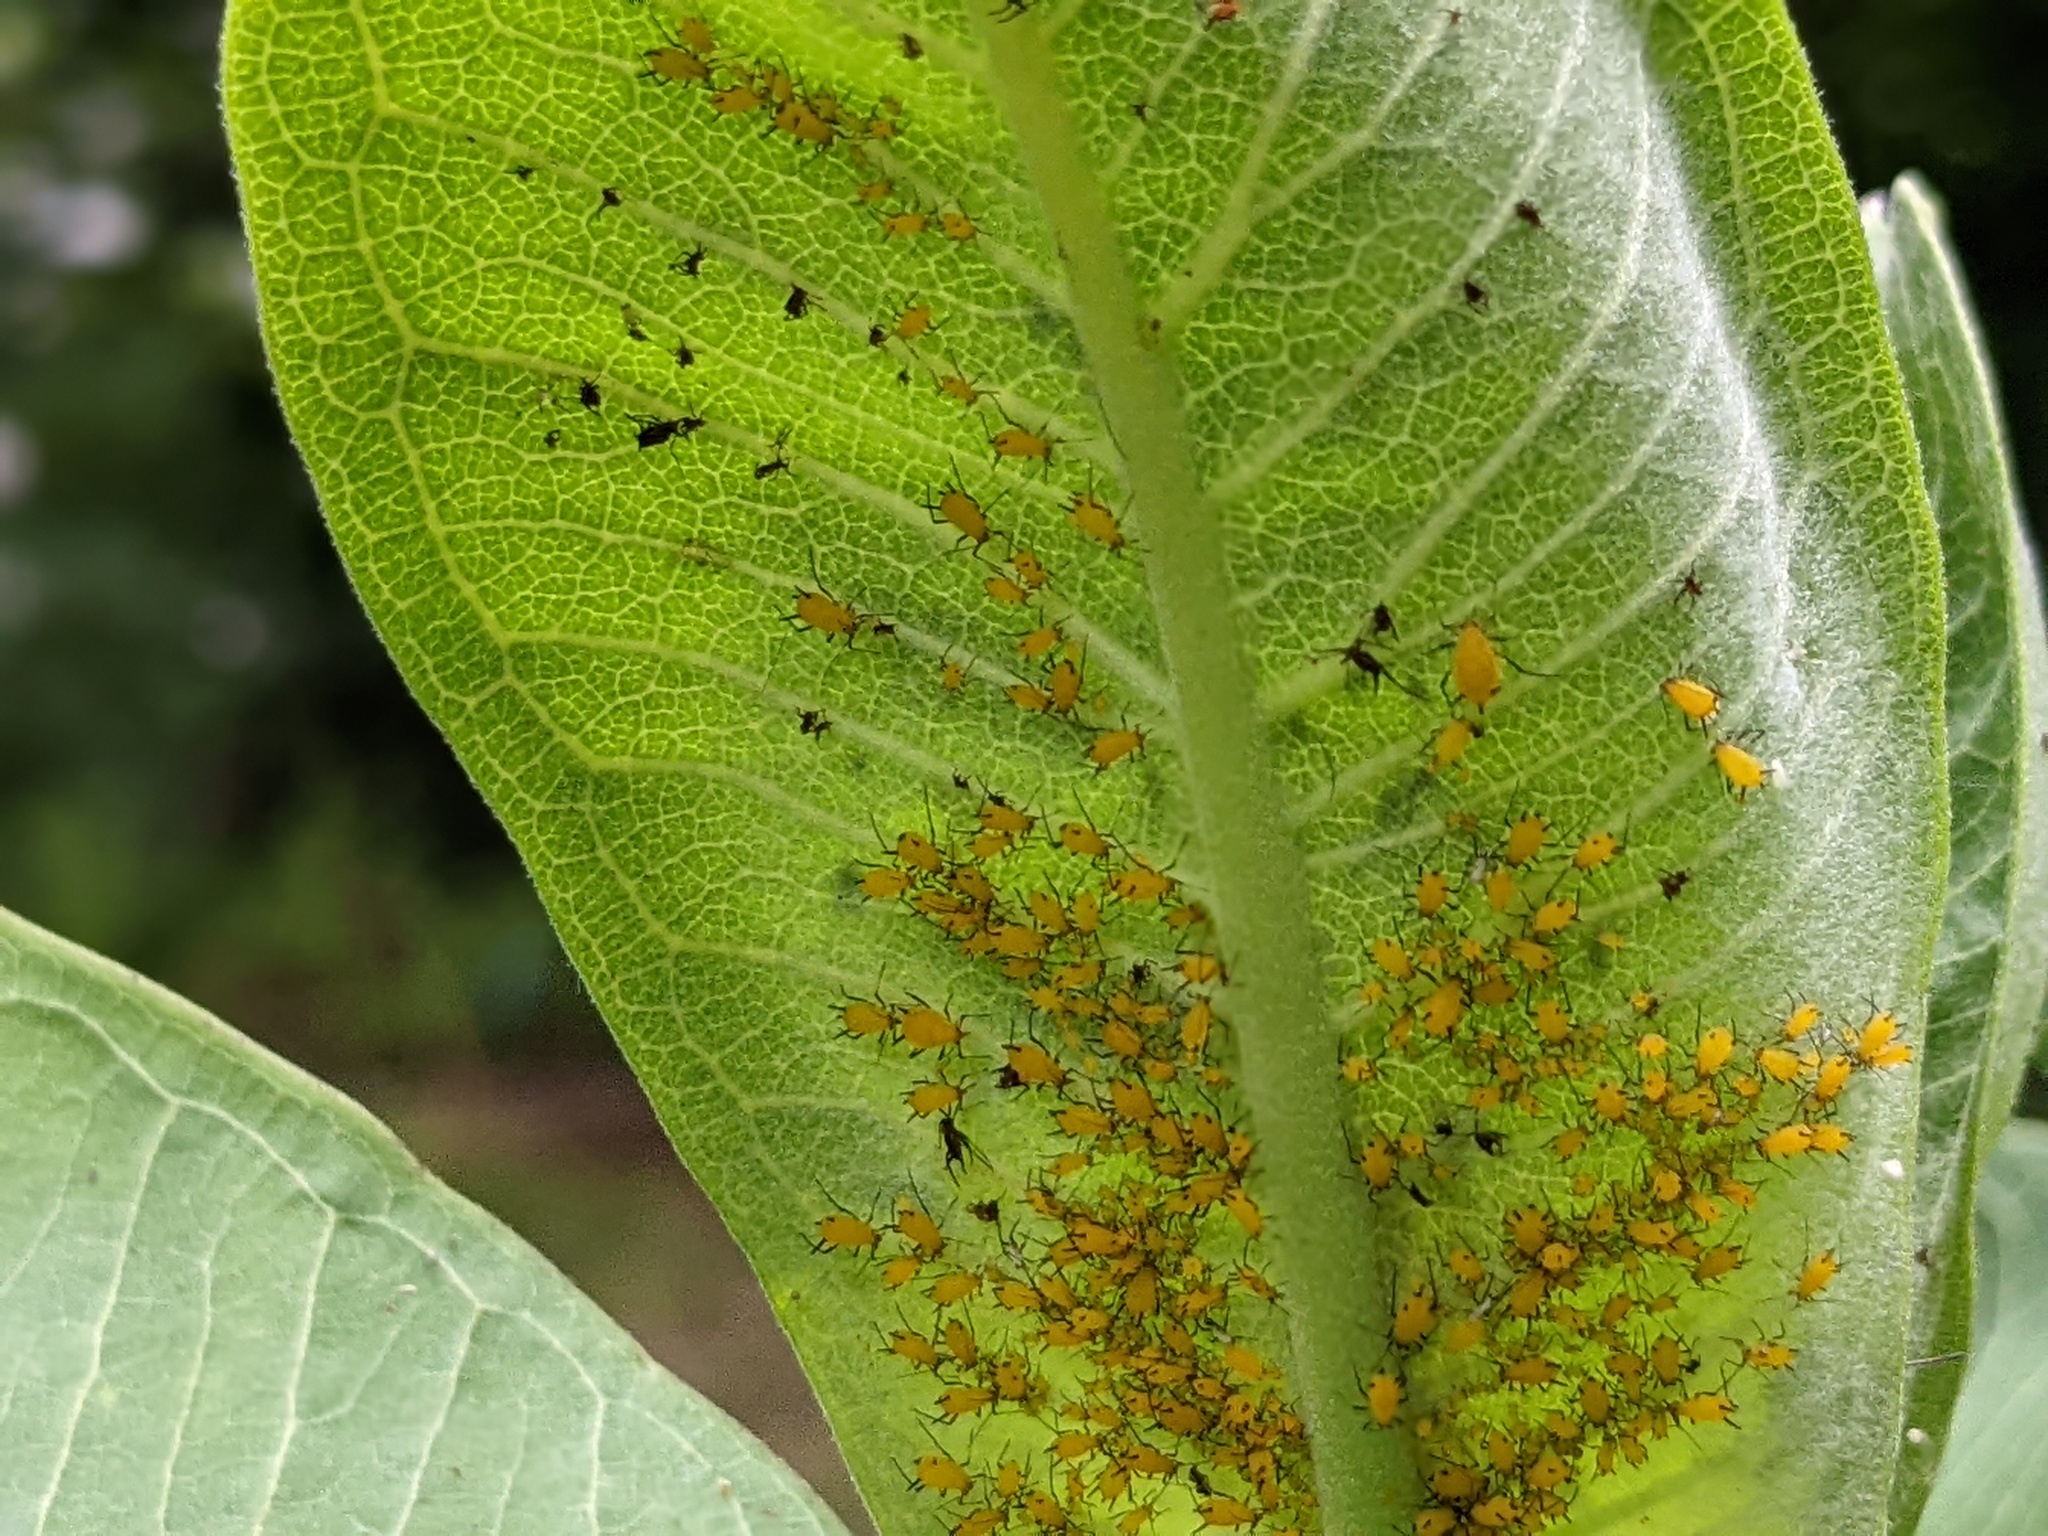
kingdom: Animalia
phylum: Arthropoda
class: Insecta
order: Hemiptera
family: Aphididae
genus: Aphis
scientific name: Aphis nerii
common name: Oleander aphid
